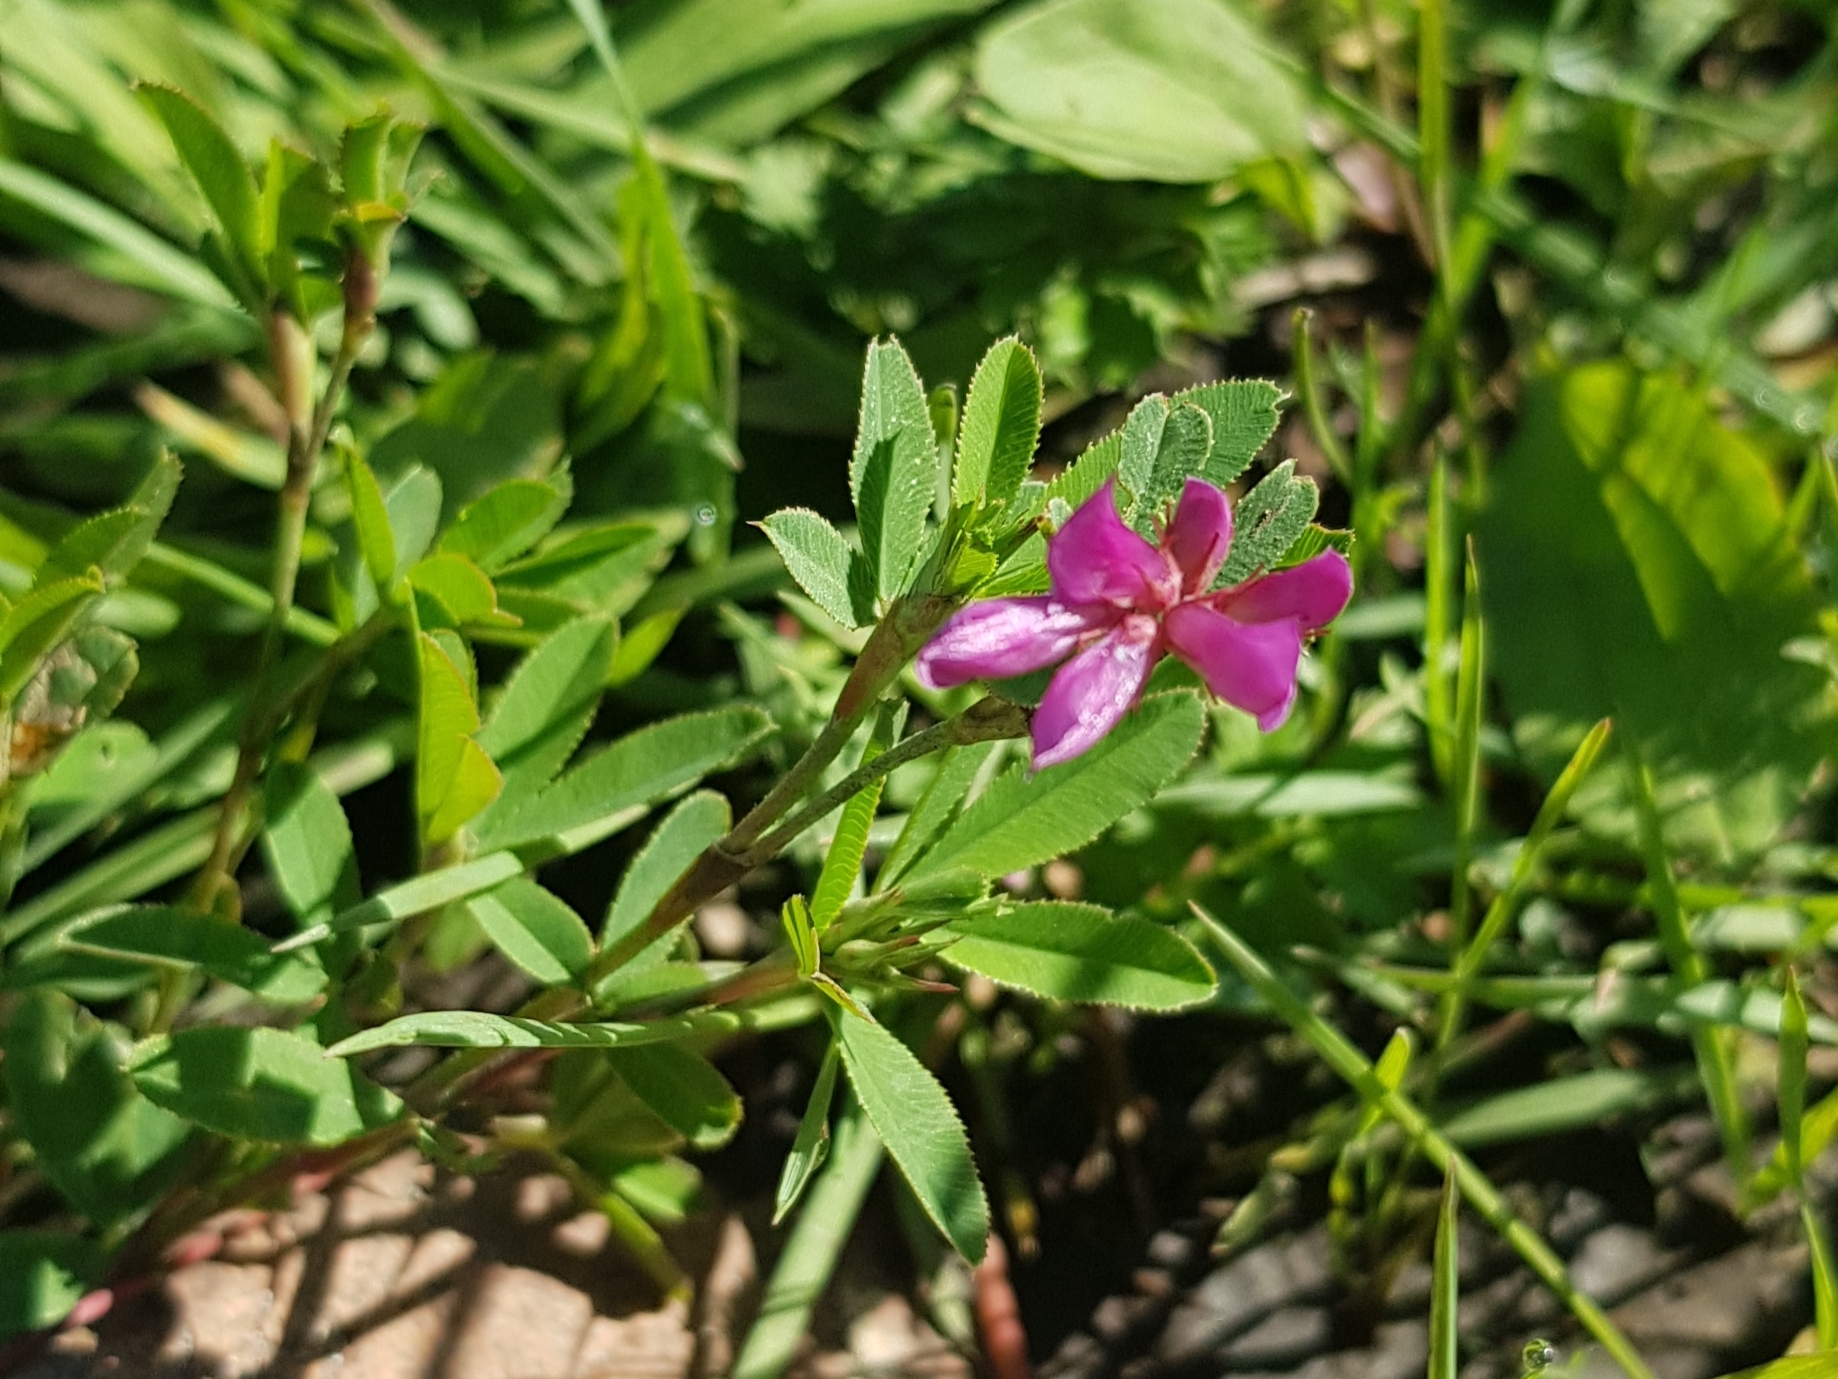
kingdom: Plantae
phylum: Tracheophyta
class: Magnoliopsida
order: Fabales
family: Fabaceae
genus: Trifolium
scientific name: Trifolium lupinaster
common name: Lupine clover
